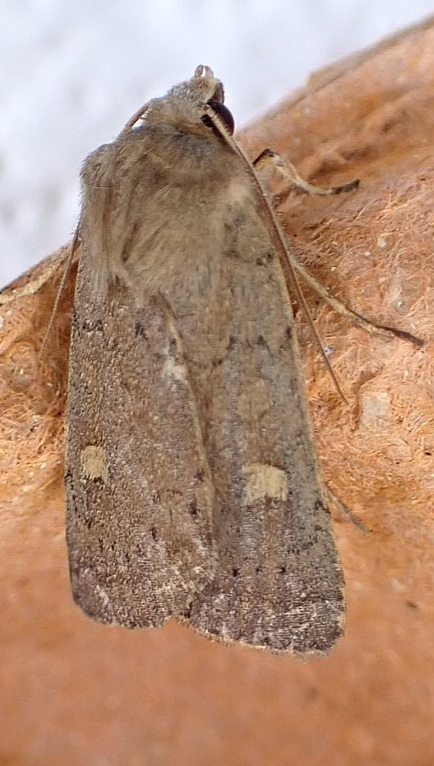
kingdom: Animalia
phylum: Arthropoda
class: Insecta
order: Lepidoptera
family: Noctuidae
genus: Xestia
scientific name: Xestia xanthographa
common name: Square-spot rustic
